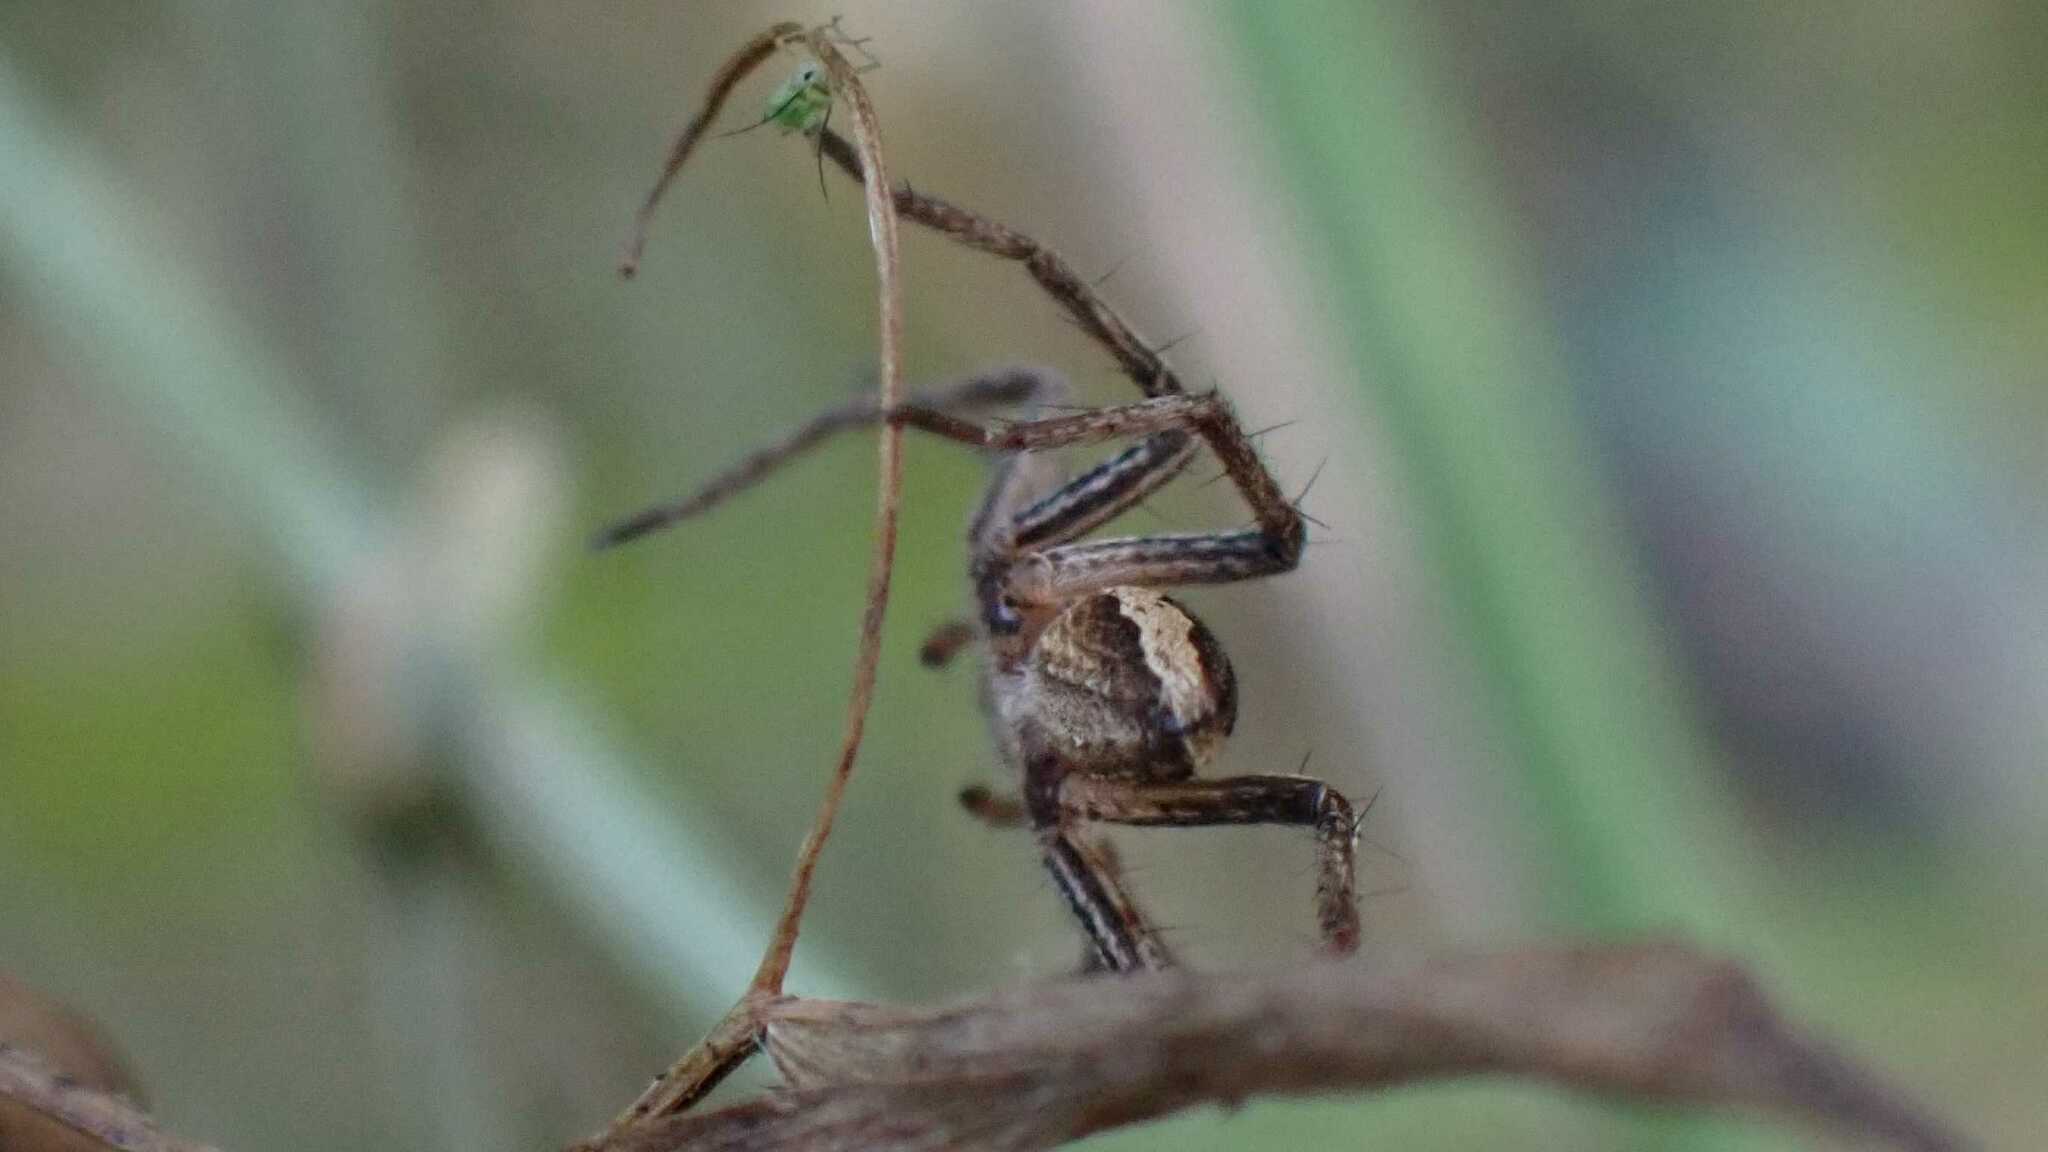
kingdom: Animalia
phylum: Arthropoda
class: Arachnida
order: Araneae
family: Pisauridae
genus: Pisaura
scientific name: Pisaura mirabilis
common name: Tent spider
